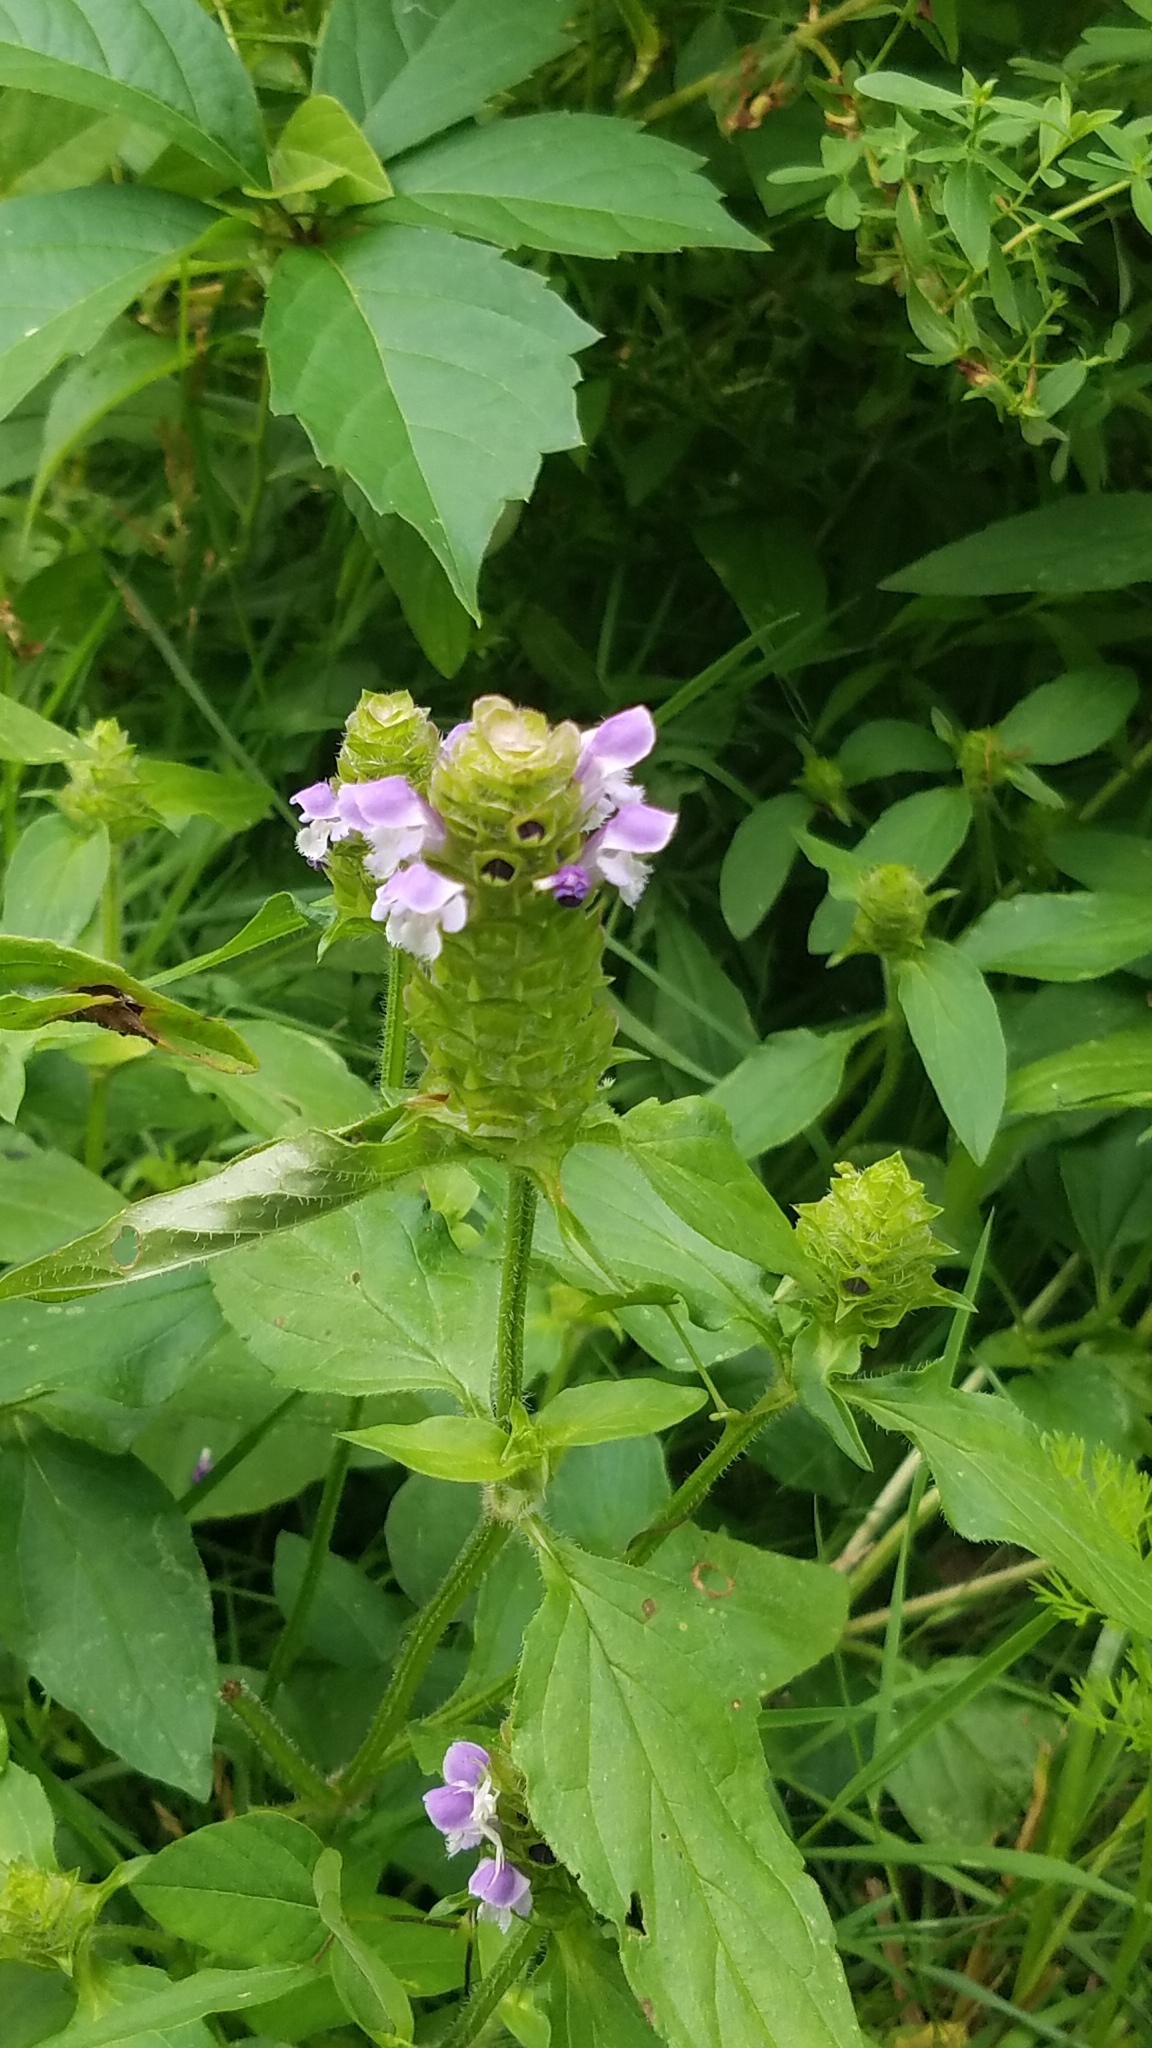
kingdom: Plantae
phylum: Tracheophyta
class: Magnoliopsida
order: Lamiales
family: Lamiaceae
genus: Prunella
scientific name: Prunella vulgaris
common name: Heal-all
